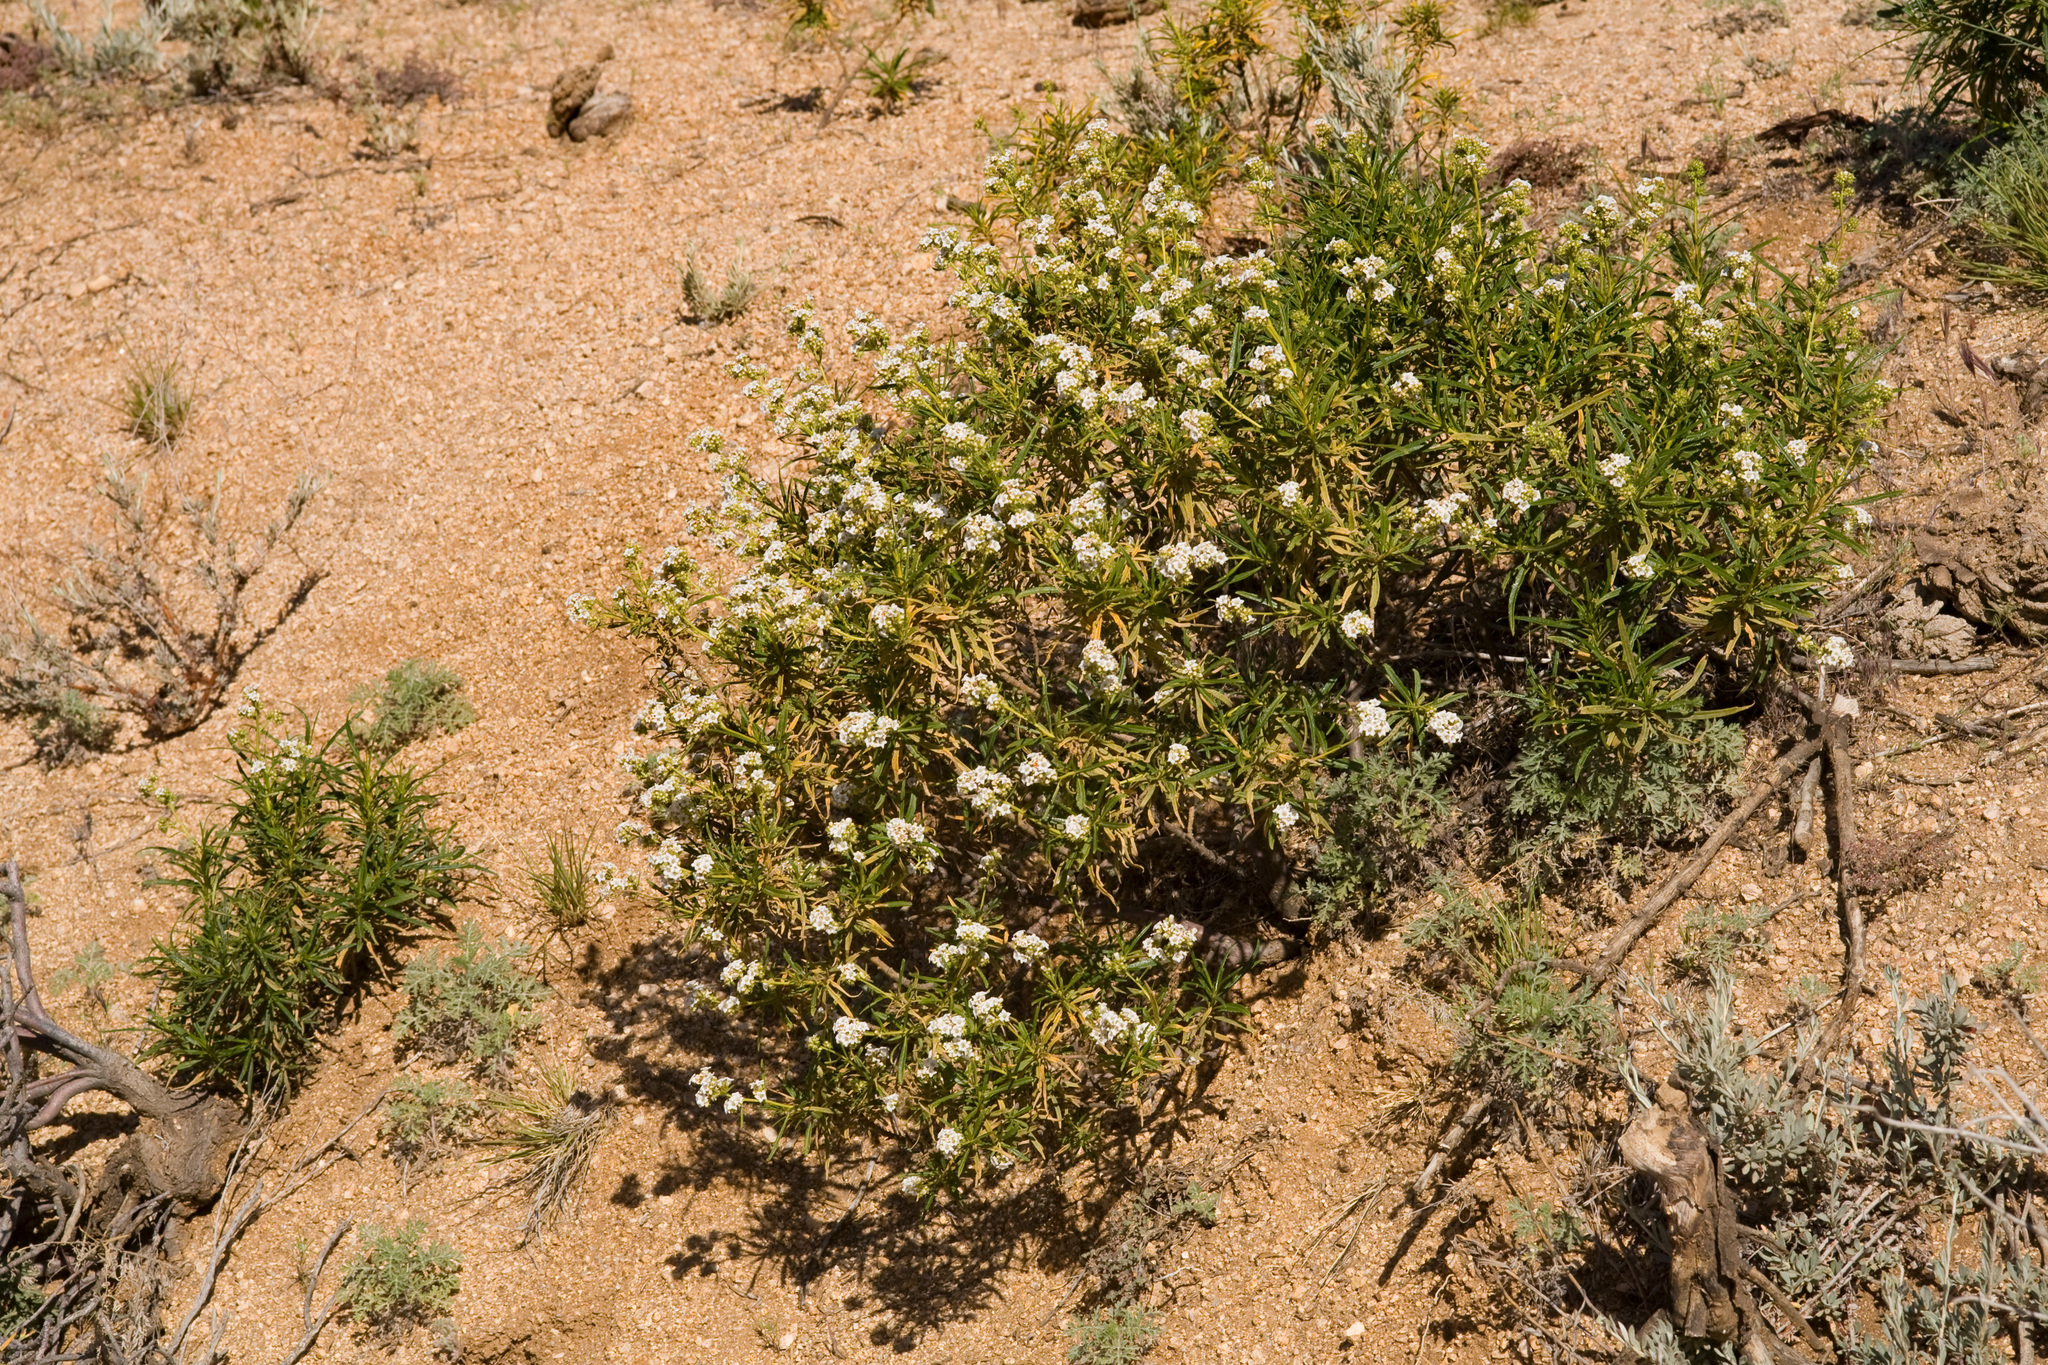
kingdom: Plantae
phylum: Tracheophyta
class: Magnoliopsida
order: Boraginales
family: Namaceae
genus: Eriodictyon
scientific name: Eriodictyon angustifolium
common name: Narrow-leaf yerba santa
